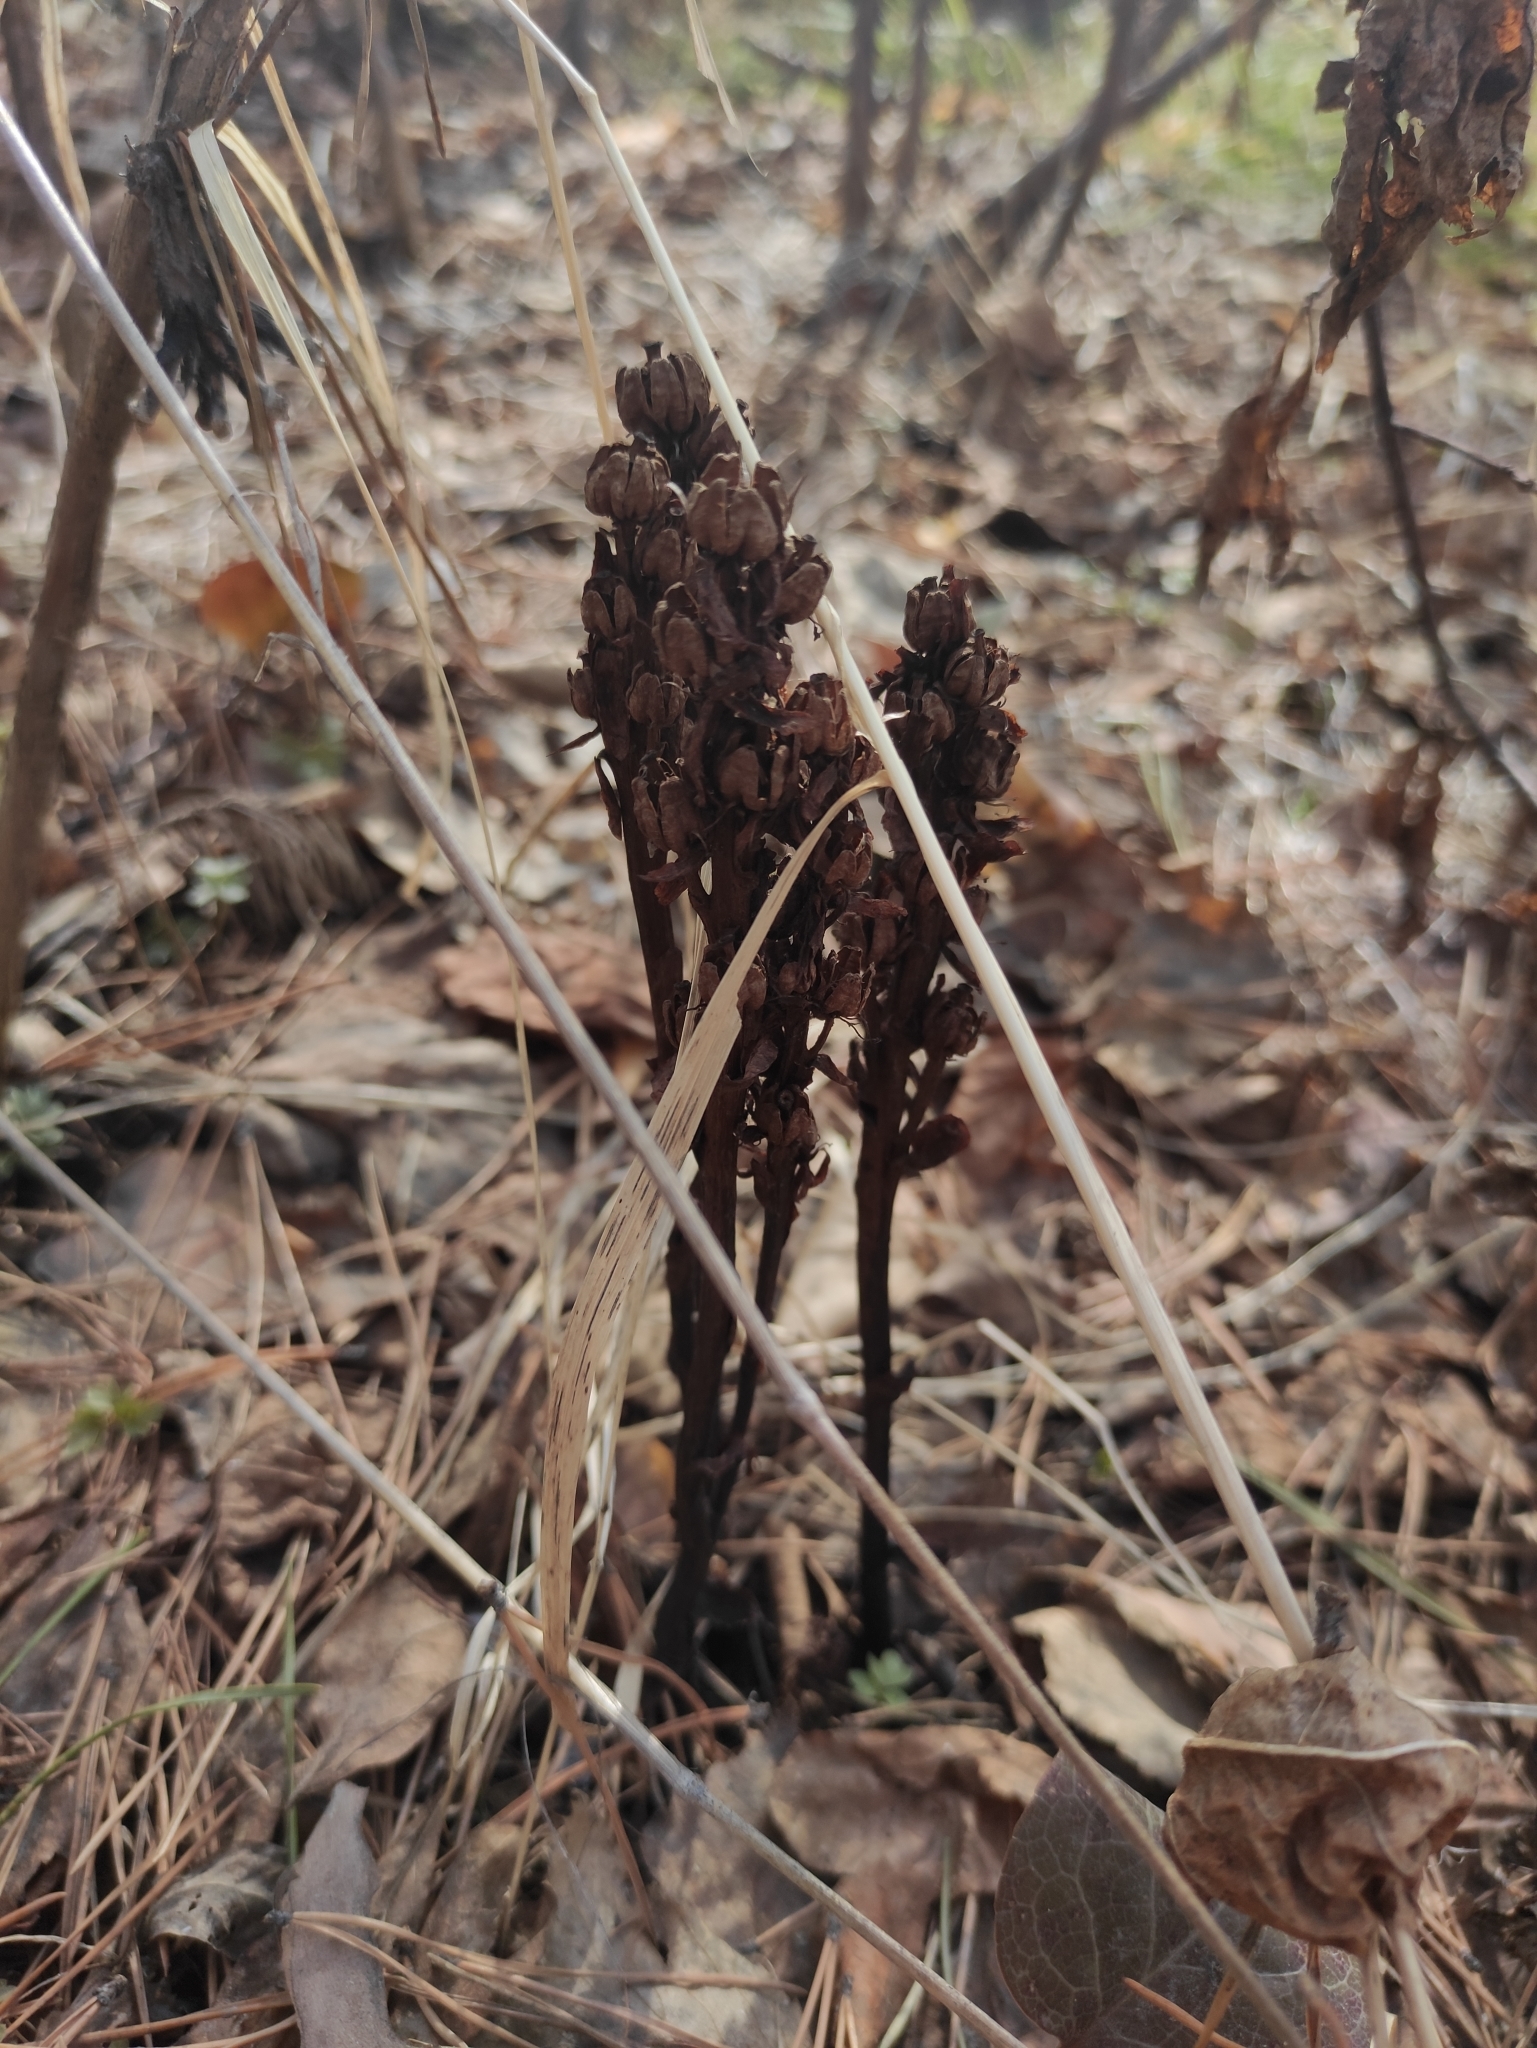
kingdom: Plantae
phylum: Tracheophyta
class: Magnoliopsida
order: Ericales
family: Ericaceae
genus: Hypopitys
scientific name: Hypopitys monotropa
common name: Yellow bird's-nest
